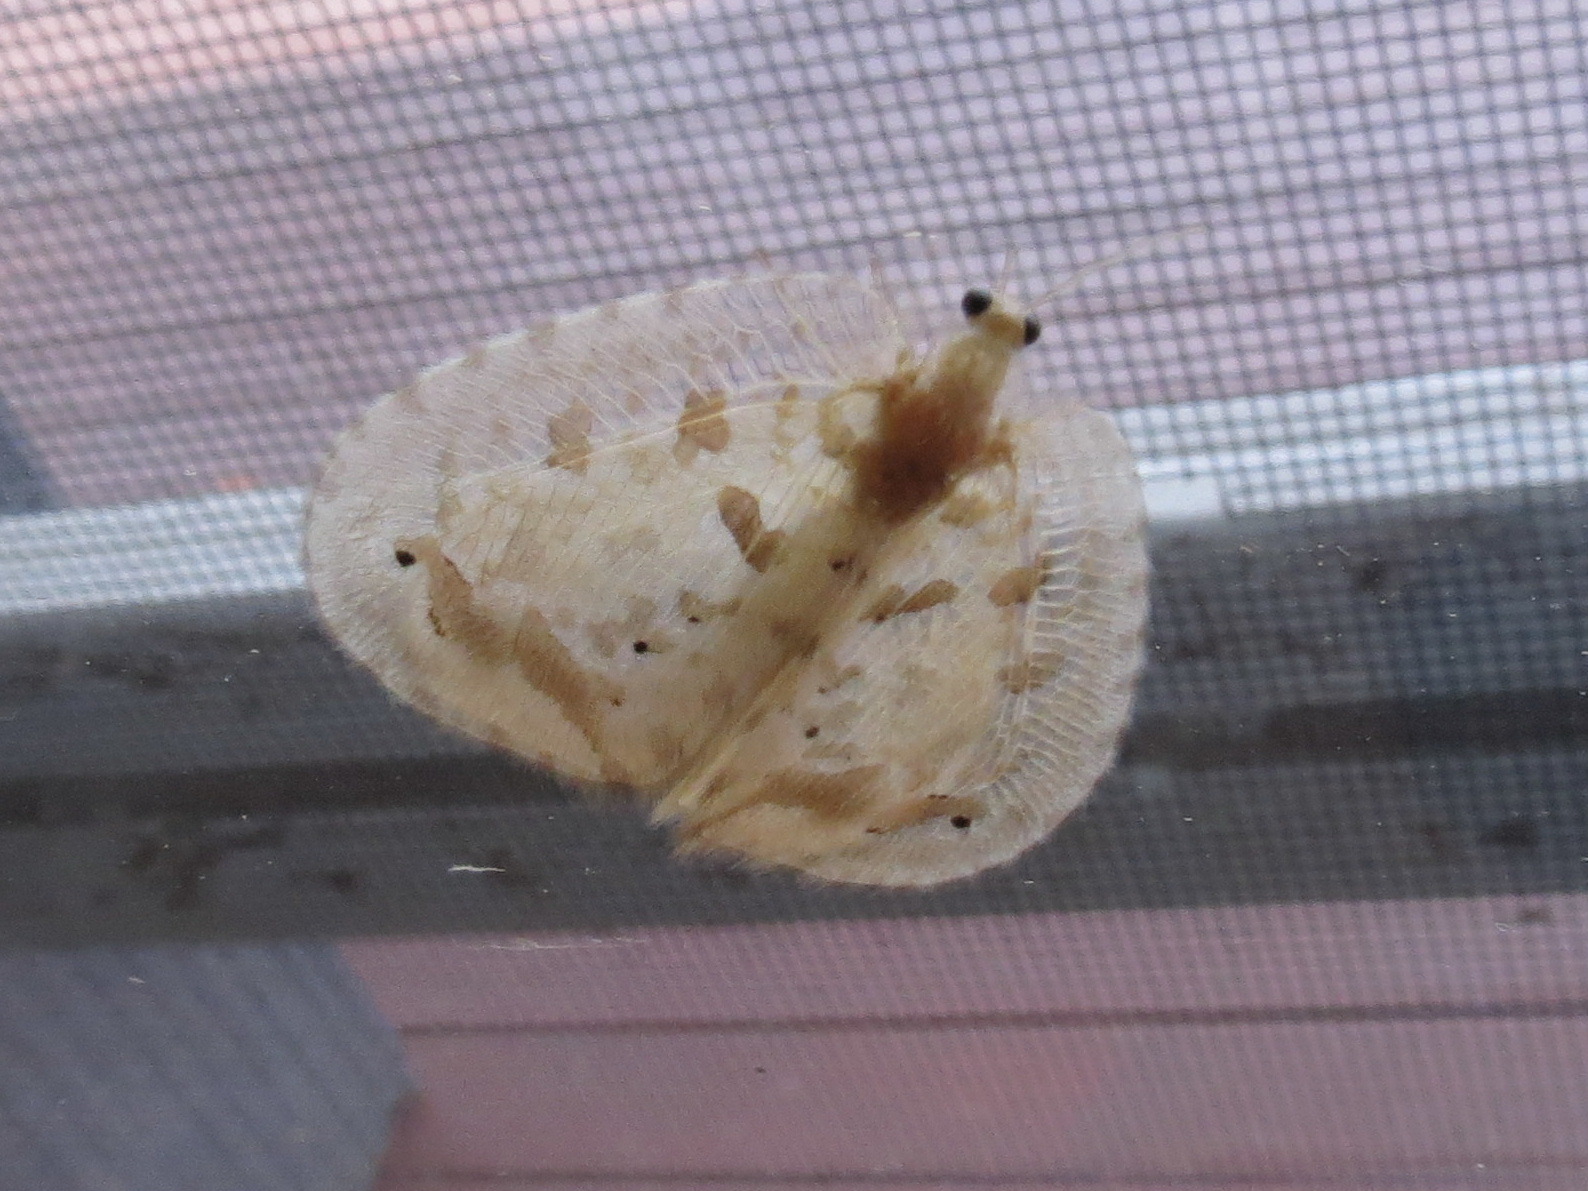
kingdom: Animalia
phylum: Arthropoda
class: Insecta
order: Neuroptera
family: Psychopsidae
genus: Psychopsis
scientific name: Psychopsis insolens
